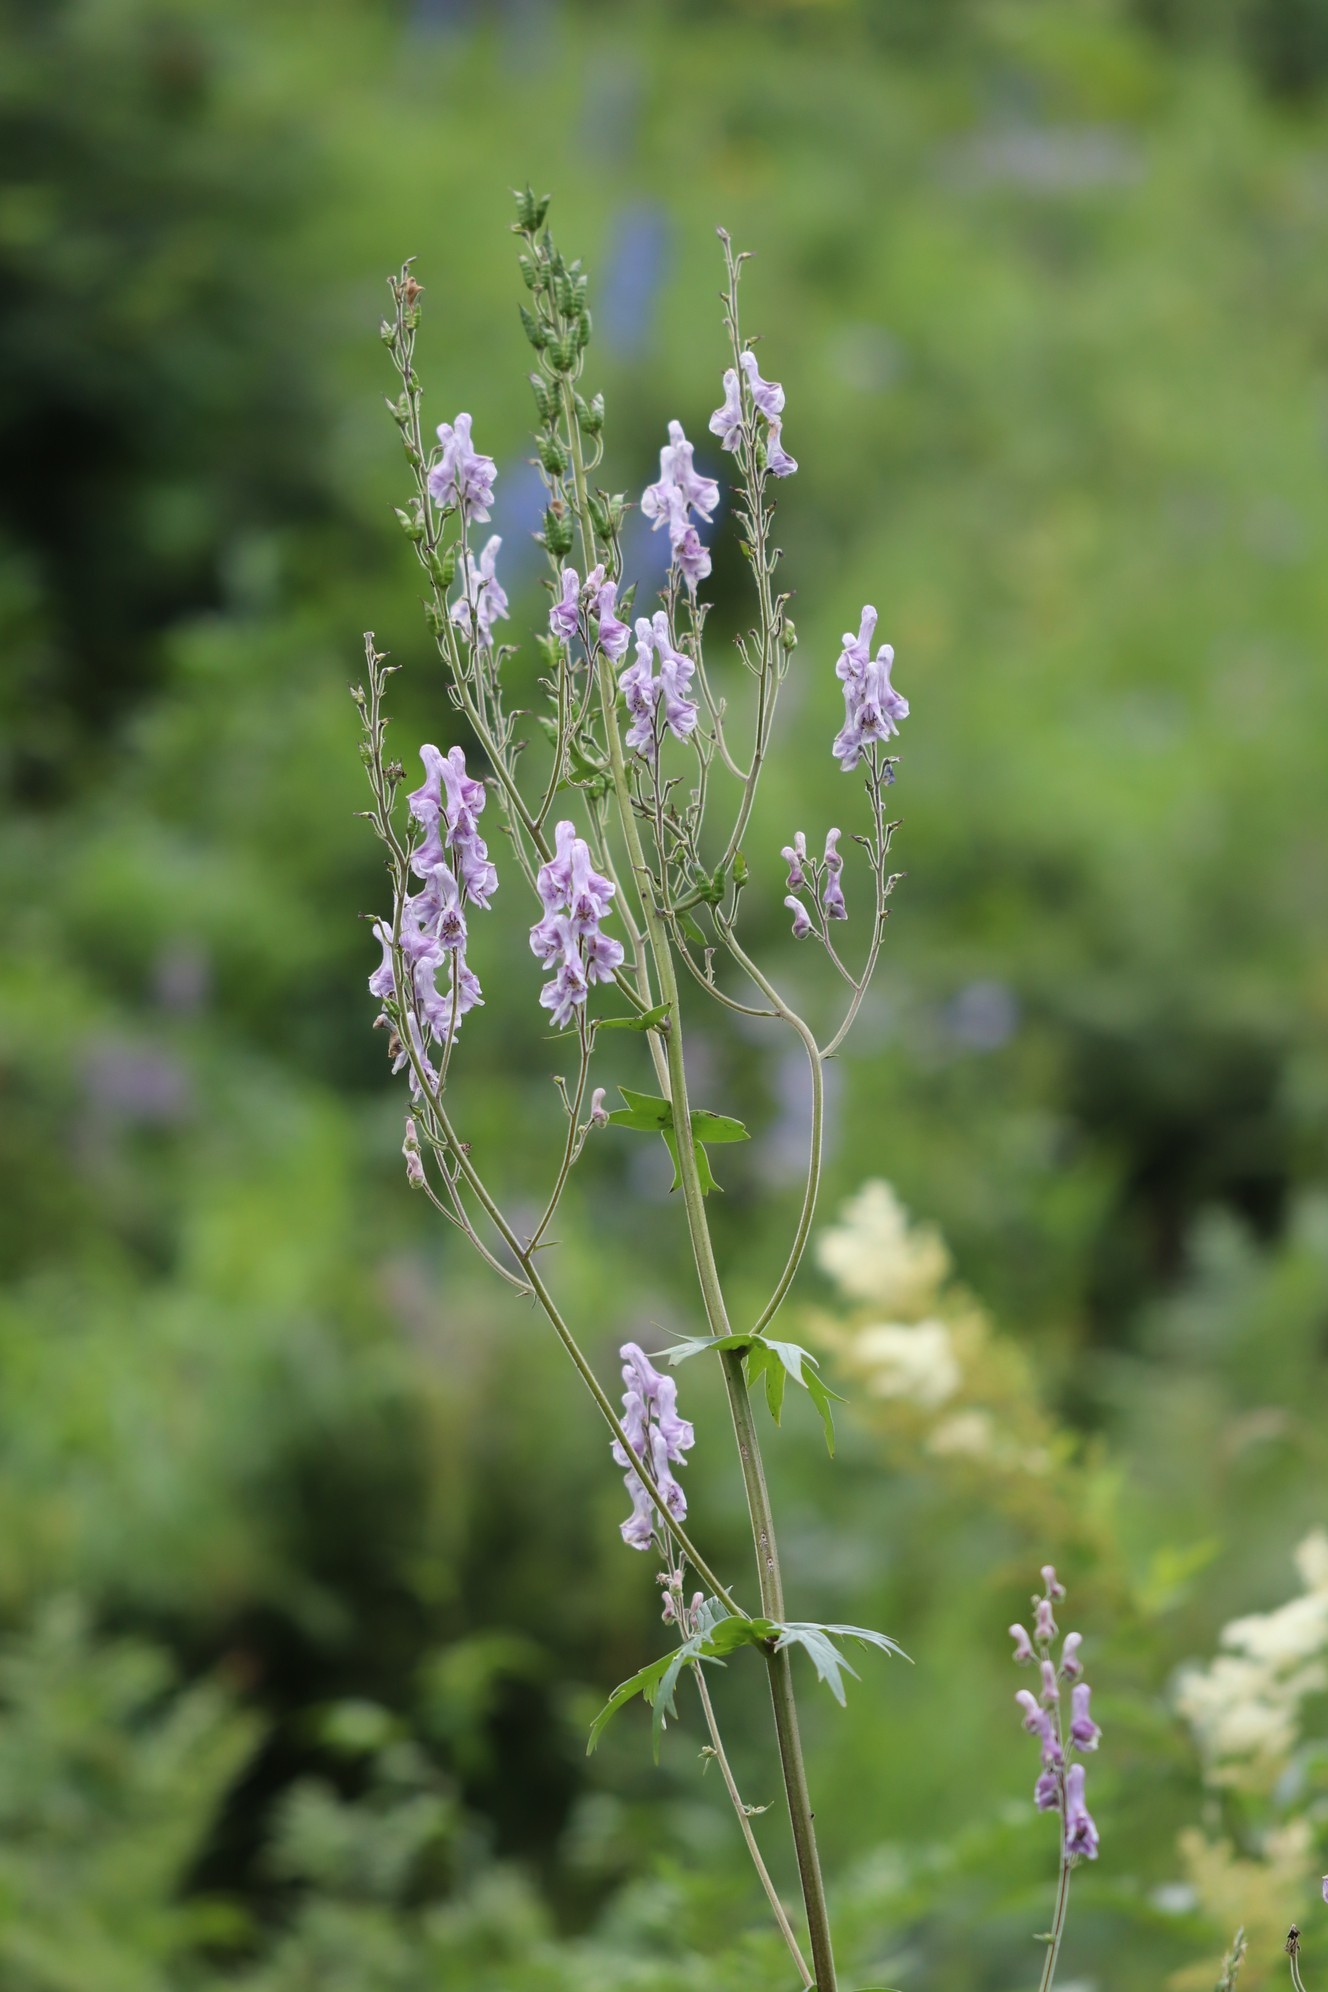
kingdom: Plantae
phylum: Tracheophyta
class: Magnoliopsida
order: Ranunculales
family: Ranunculaceae
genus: Aconitum
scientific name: Aconitum septentrionale
